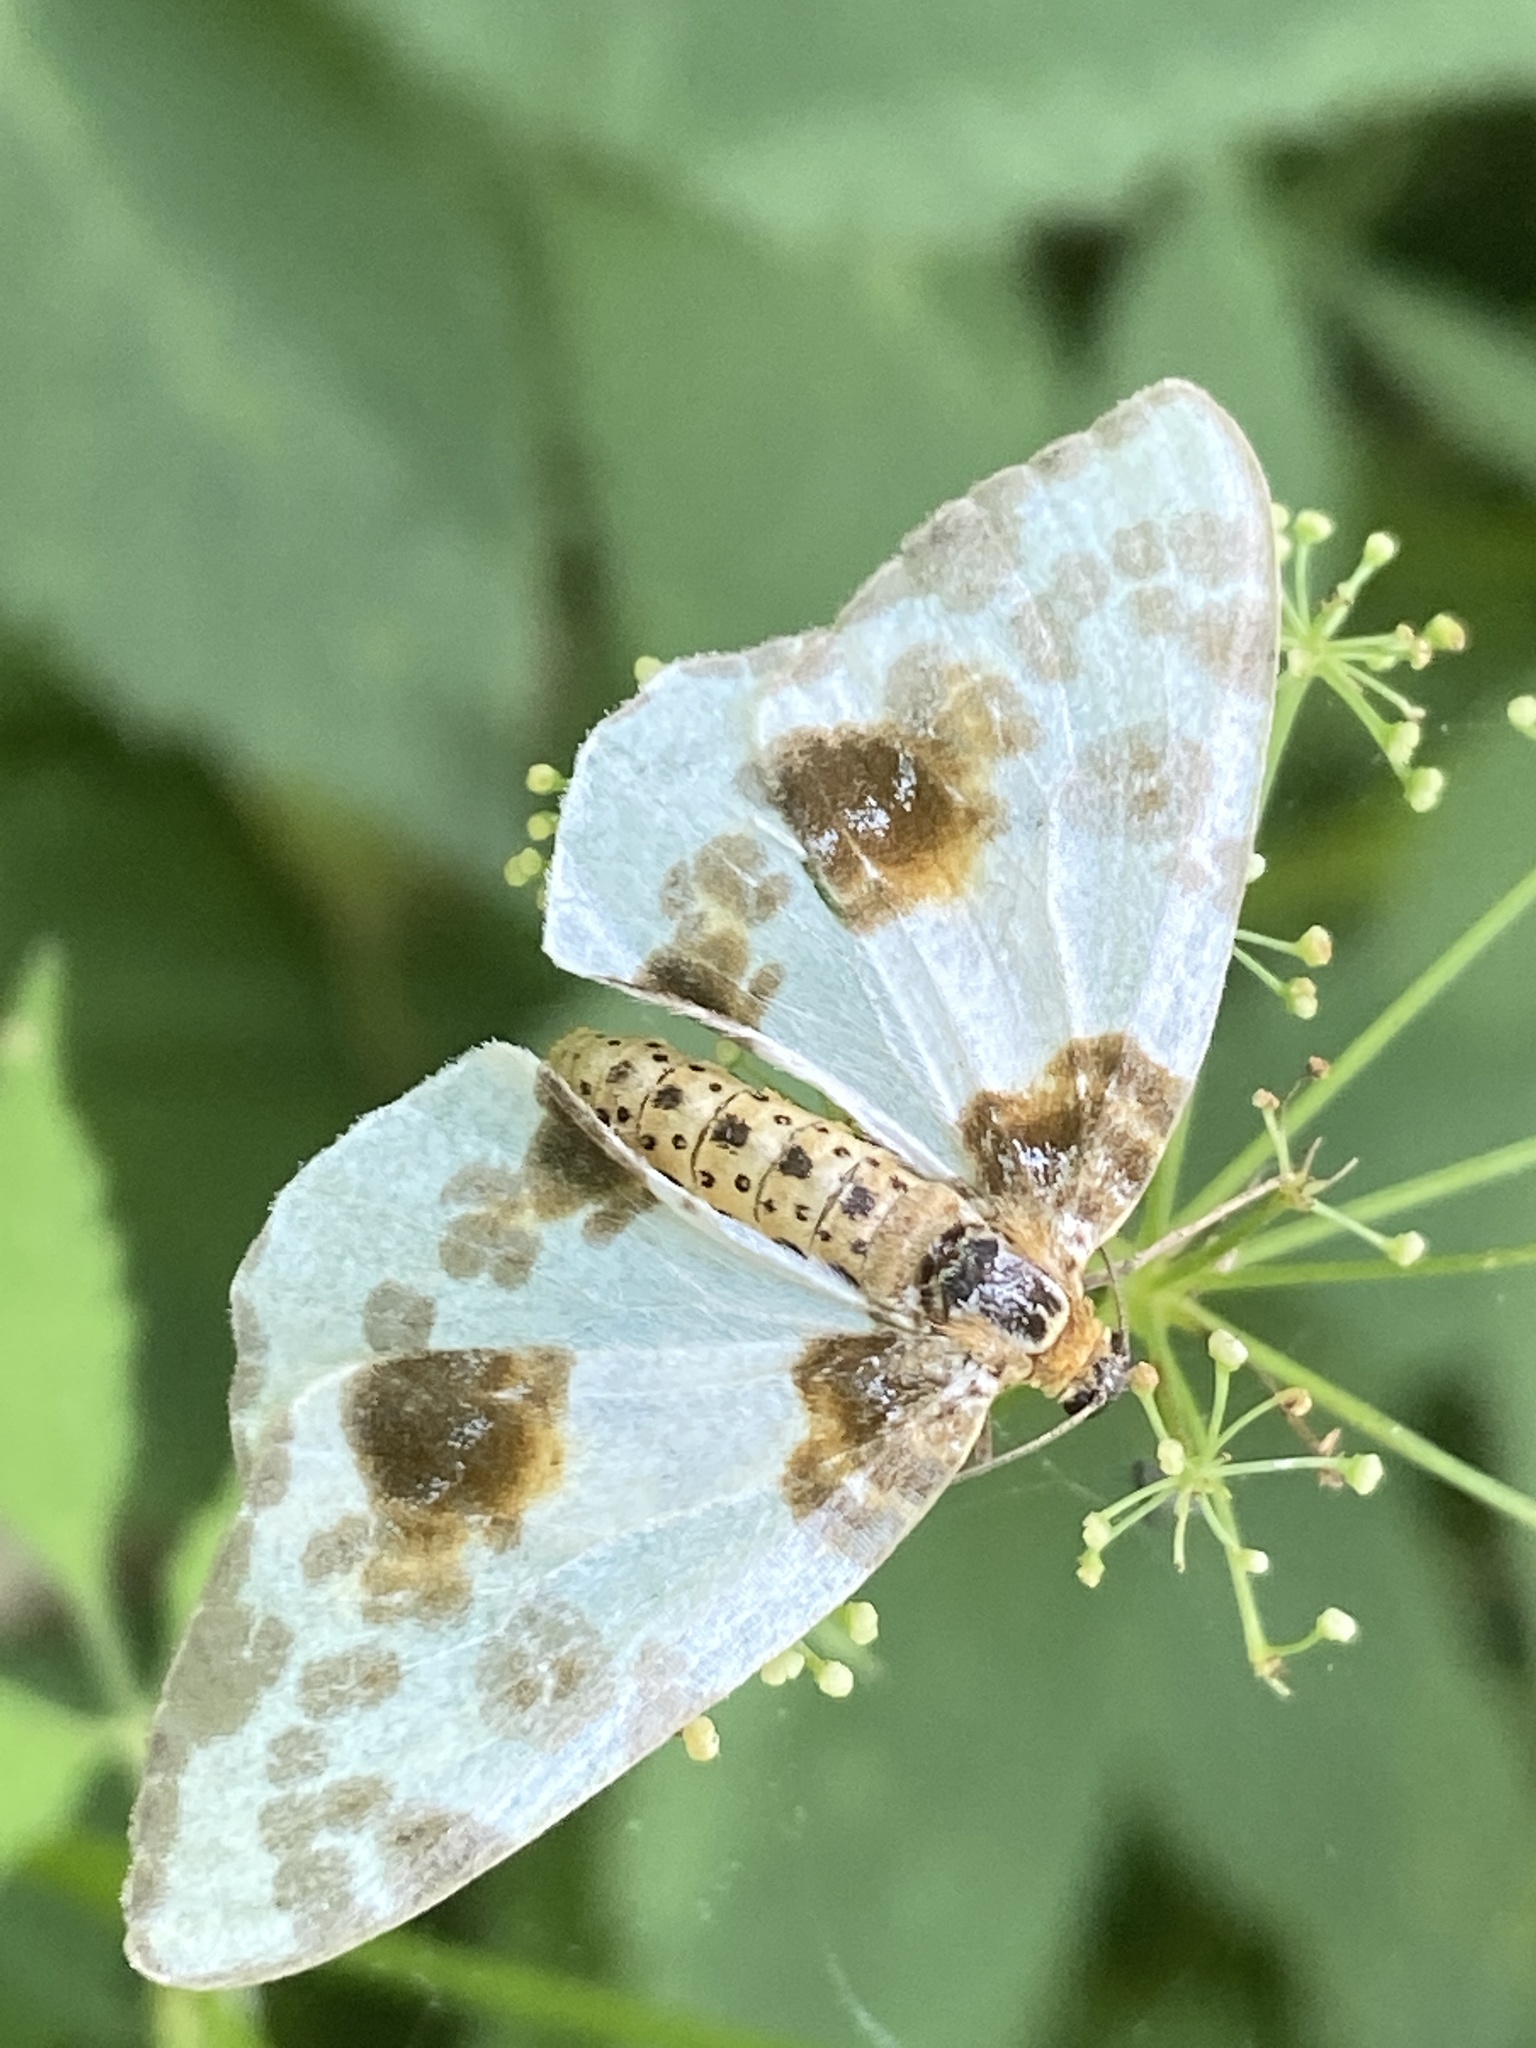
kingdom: Animalia
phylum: Arthropoda
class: Insecta
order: Lepidoptera
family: Geometridae
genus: Abraxas
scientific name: Abraxas sylvata
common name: Clouded magpie
